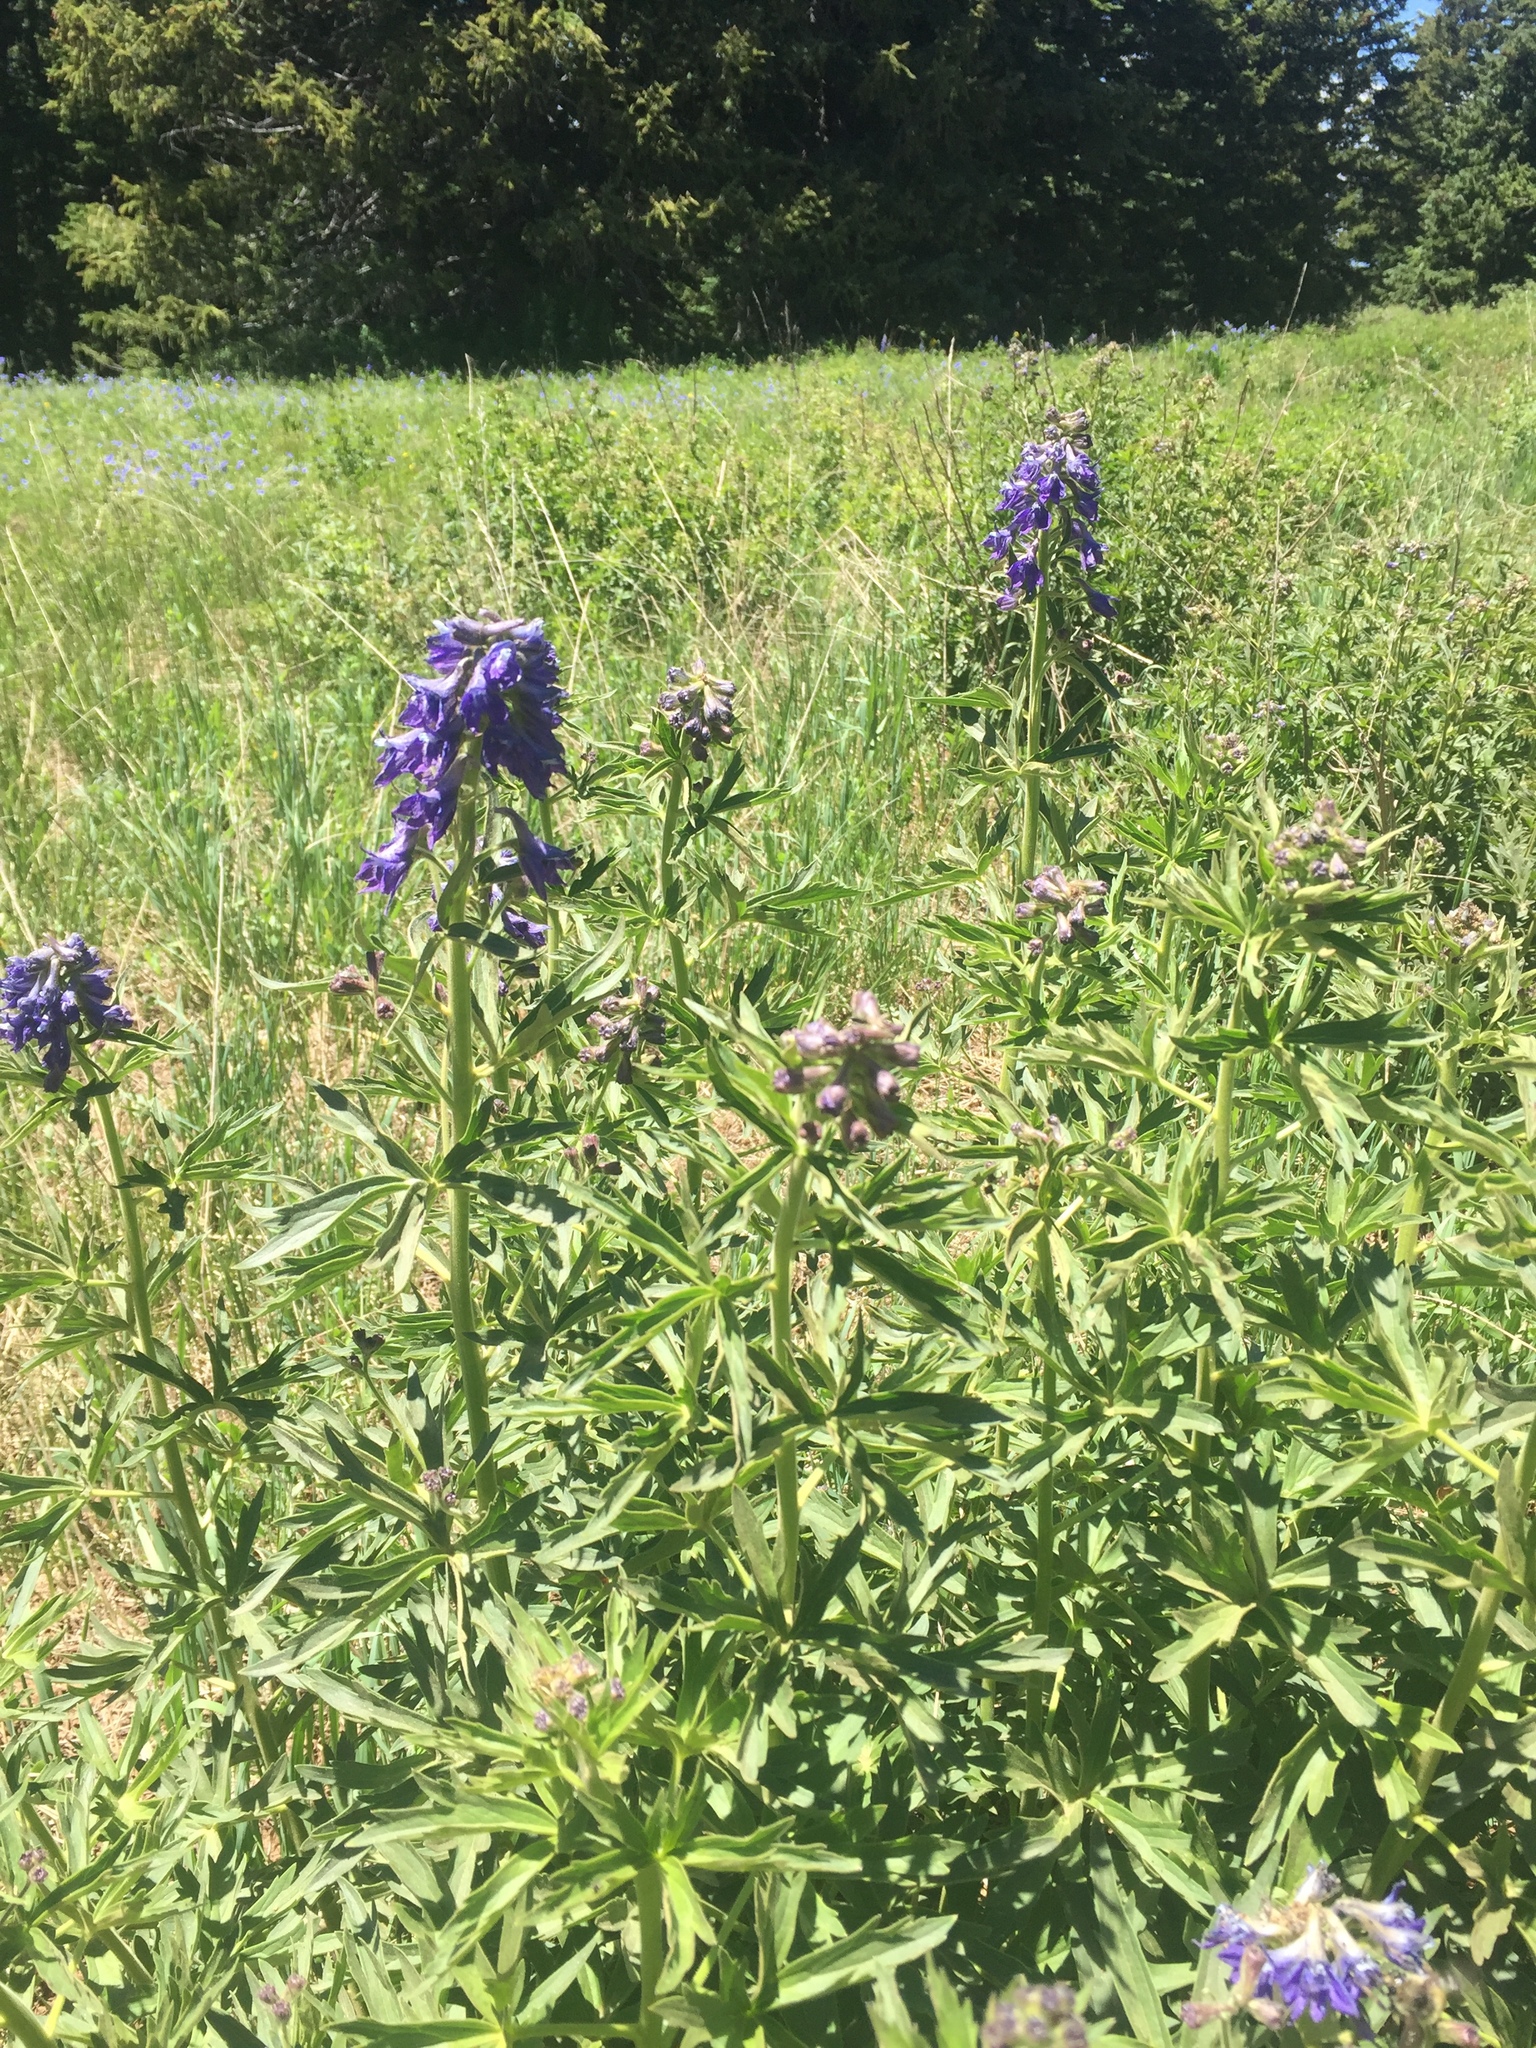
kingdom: Plantae
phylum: Tracheophyta
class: Magnoliopsida
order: Ranunculales
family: Ranunculaceae
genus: Delphinium
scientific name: Delphinium barbeyi
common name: Subalpine larkspur
